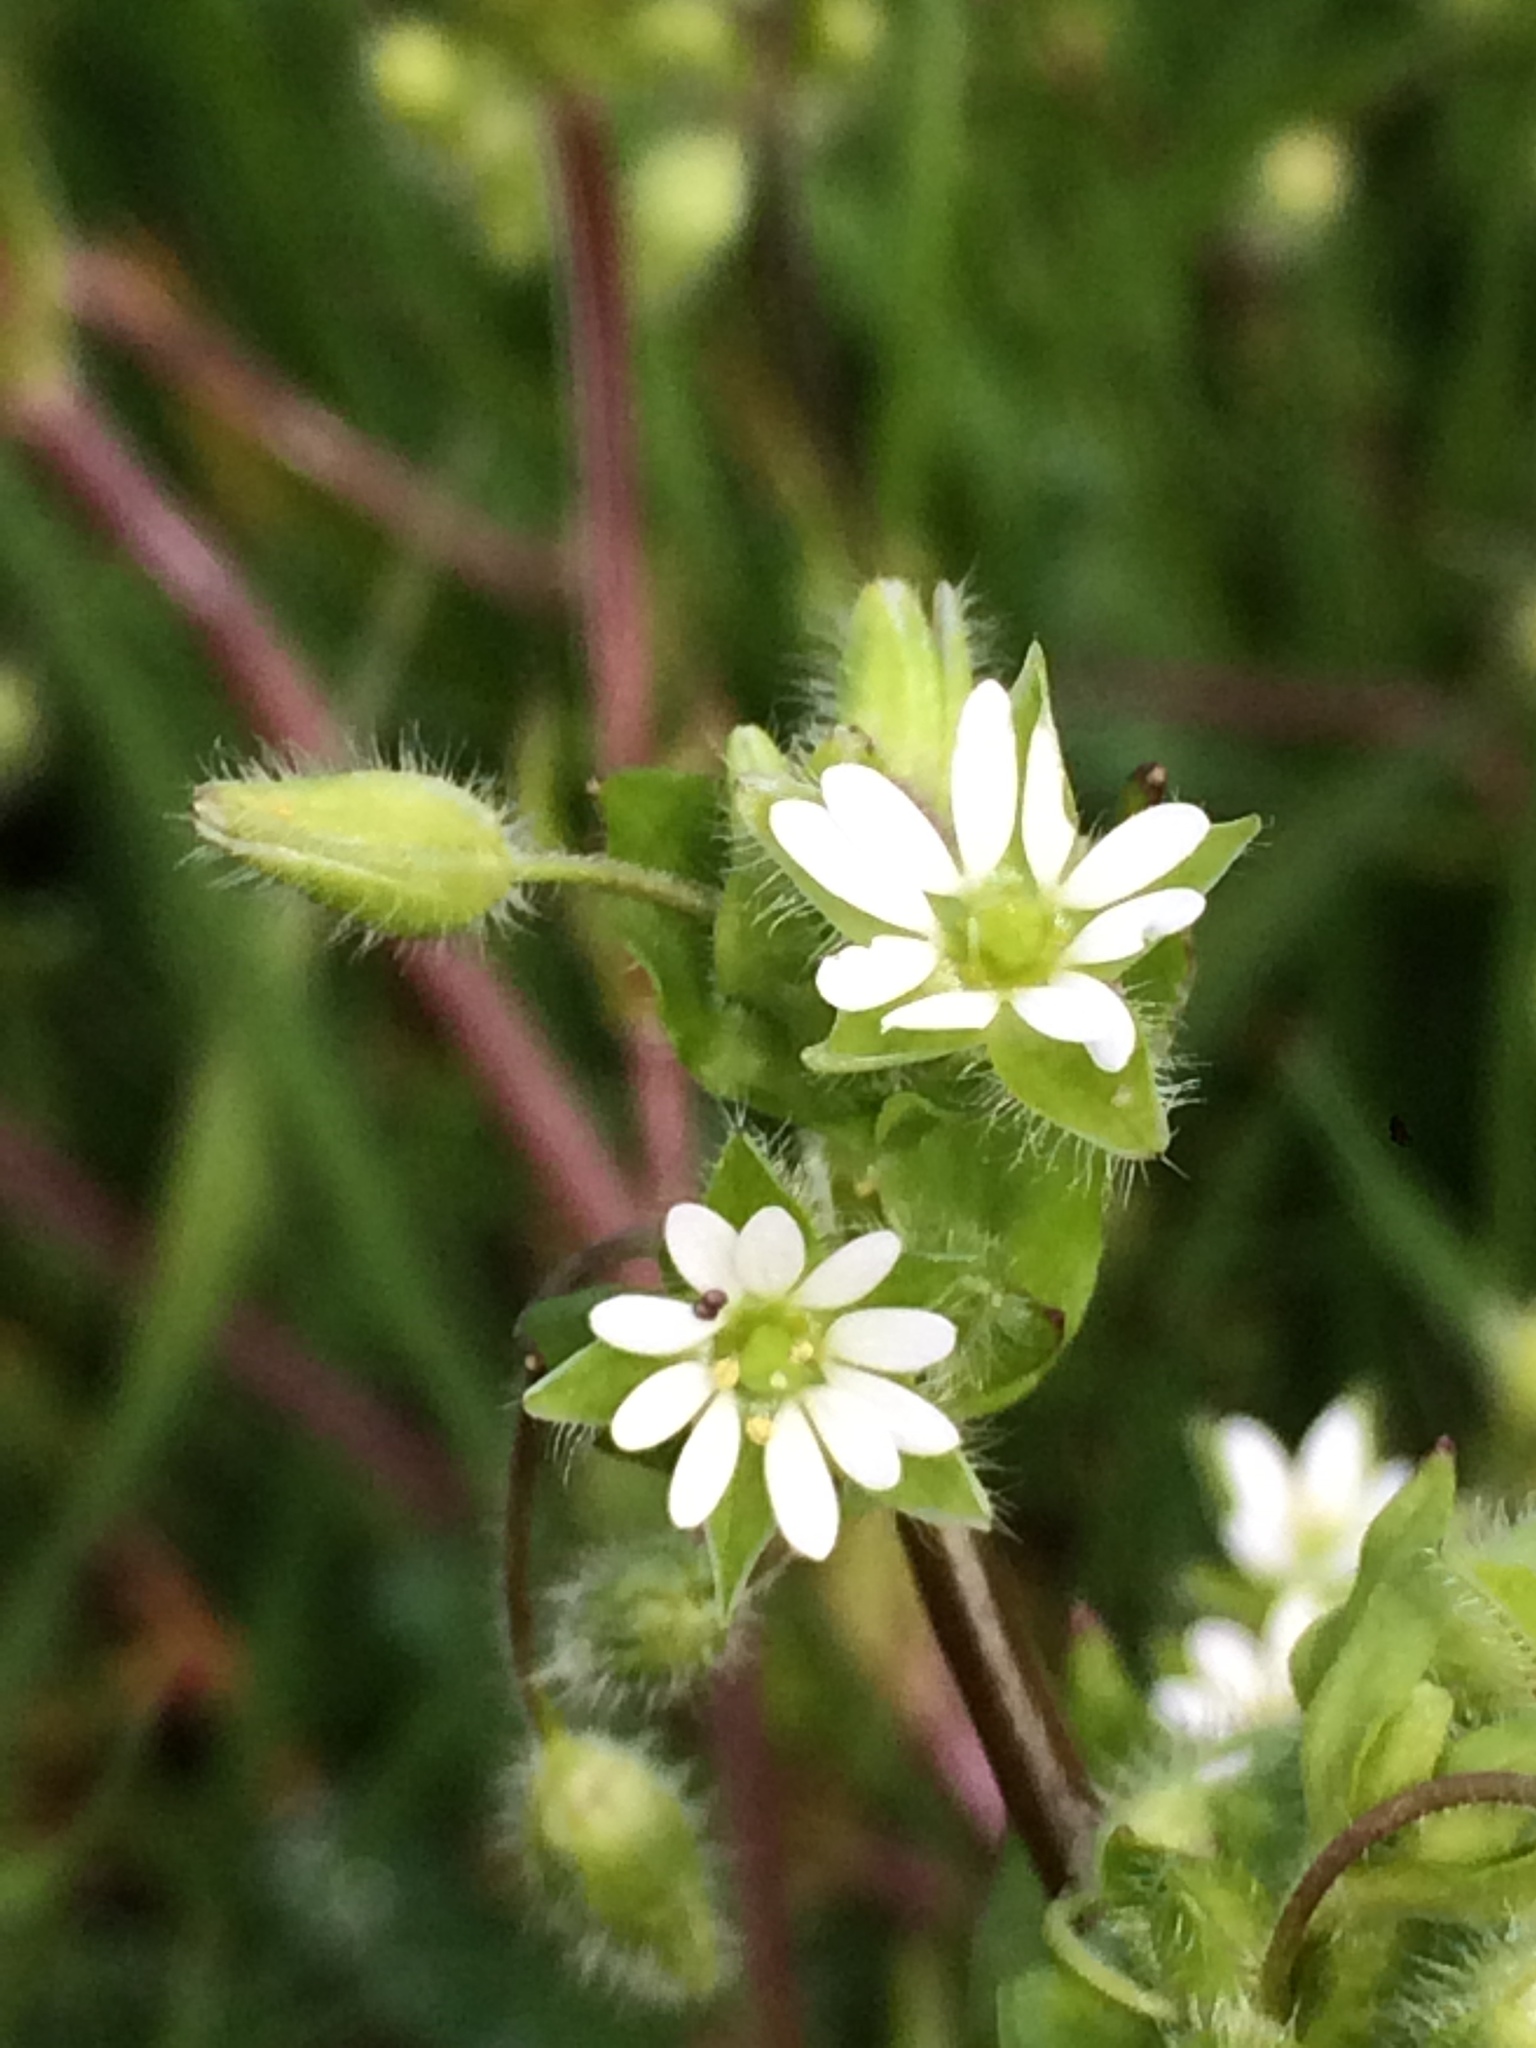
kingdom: Plantae
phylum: Tracheophyta
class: Magnoliopsida
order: Caryophyllales
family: Caryophyllaceae
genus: Stellaria
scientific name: Stellaria media
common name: Common chickweed
